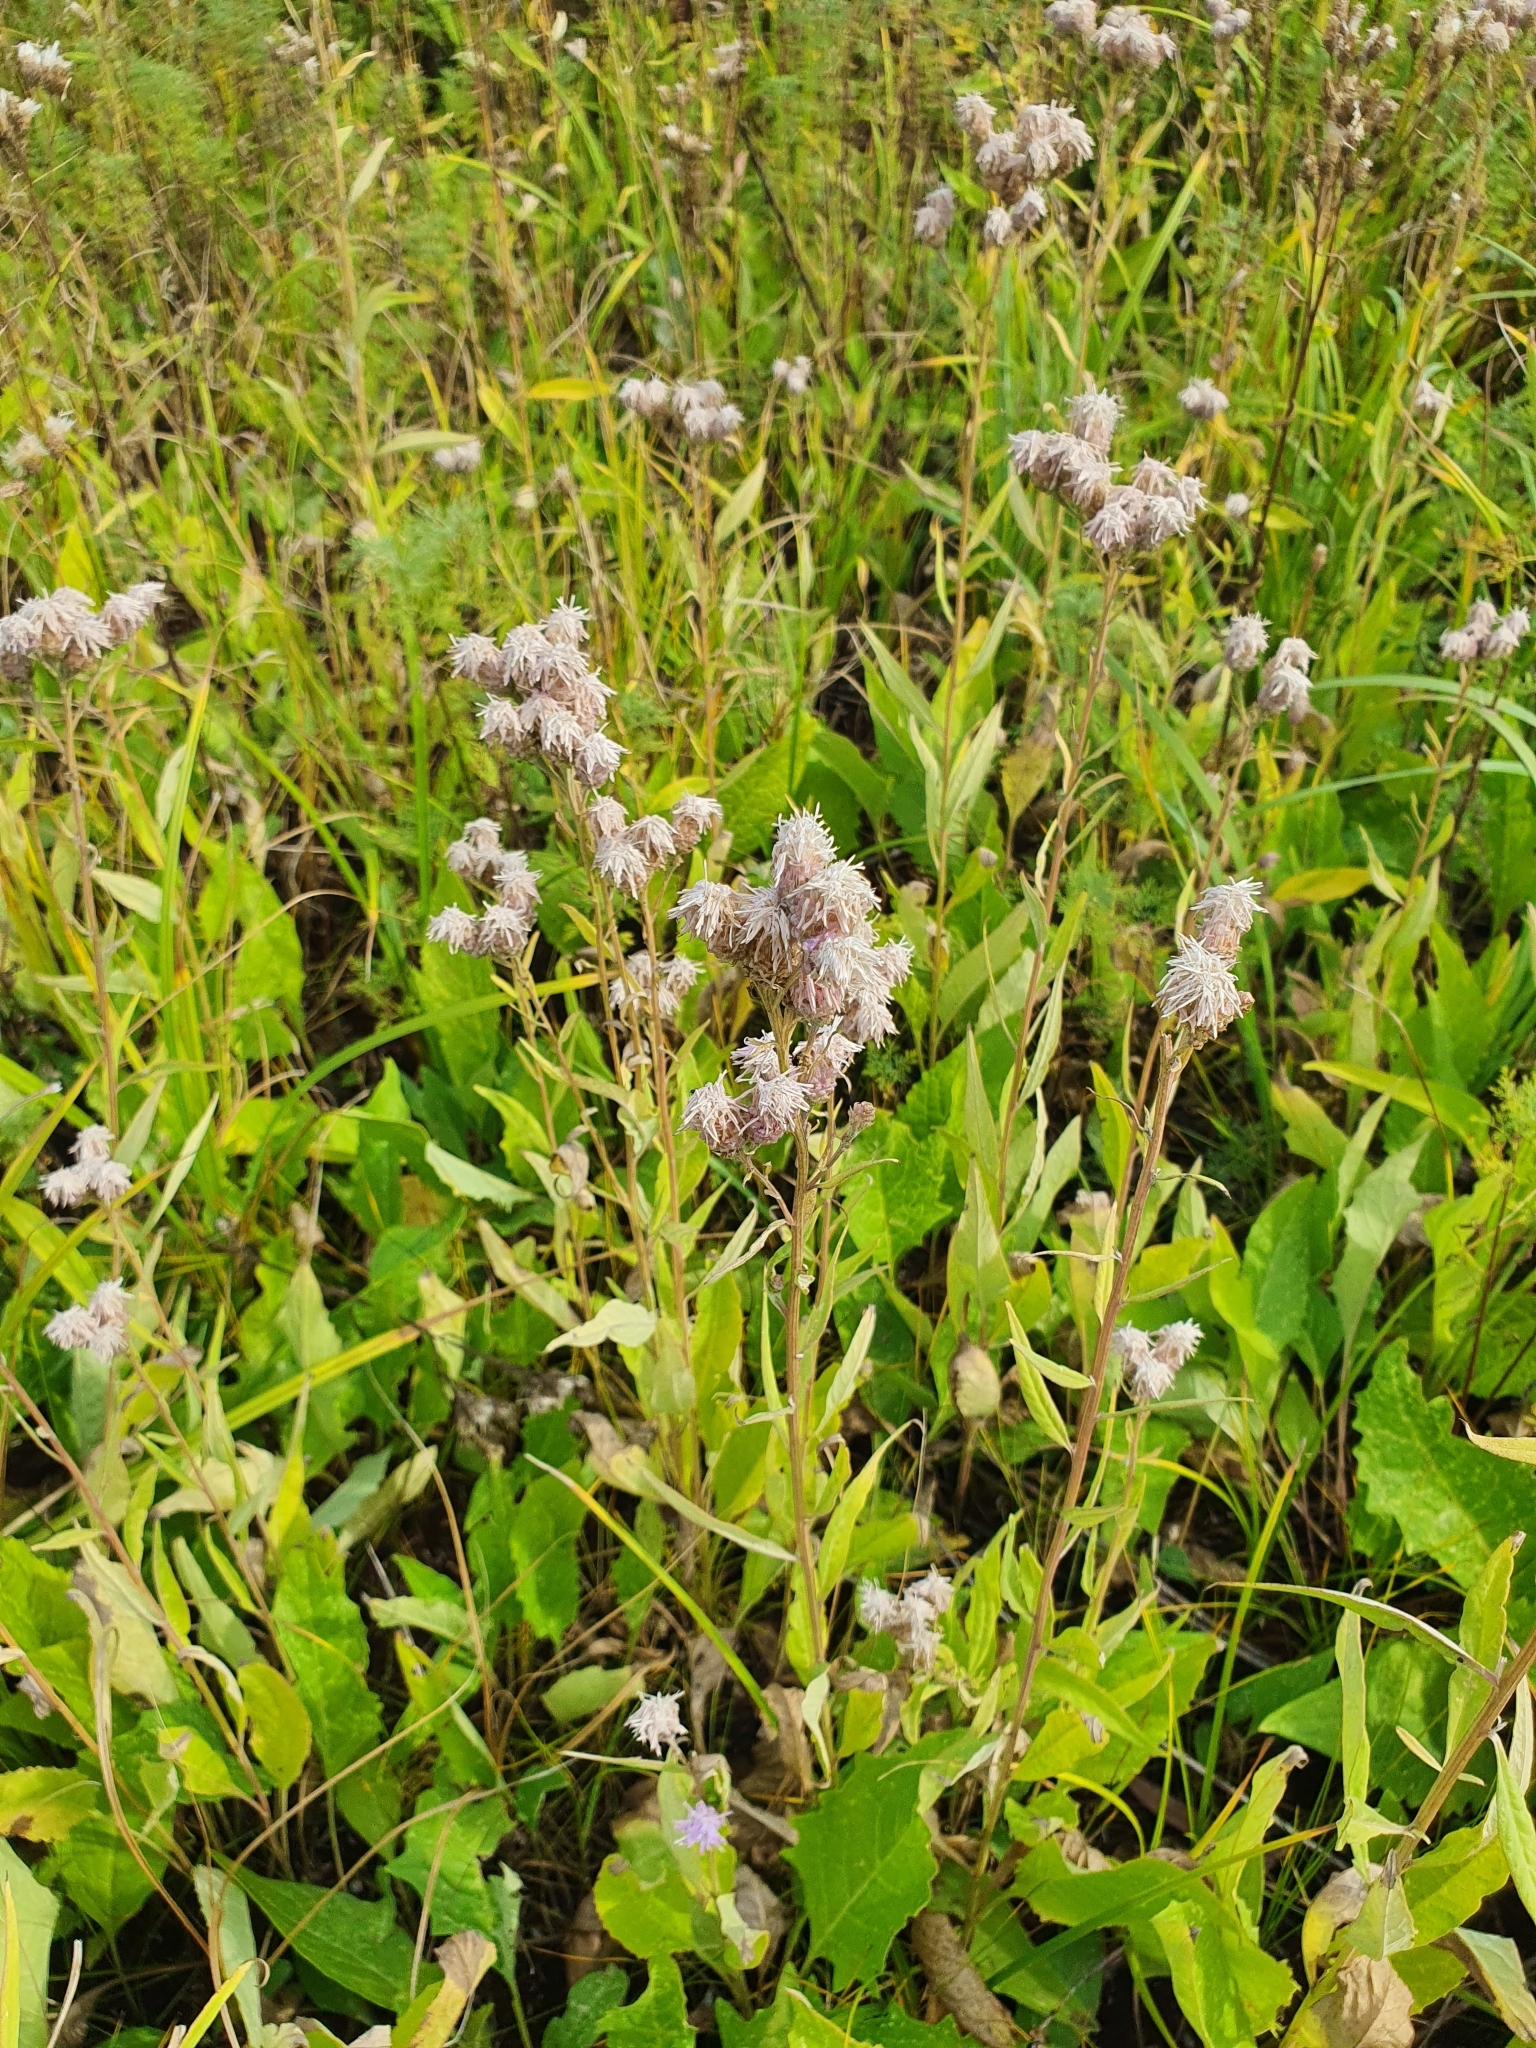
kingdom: Plantae
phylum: Tracheophyta
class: Magnoliopsida
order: Asterales
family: Asteraceae
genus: Saussurea
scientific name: Saussurea amara
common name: Alberta sawwort
